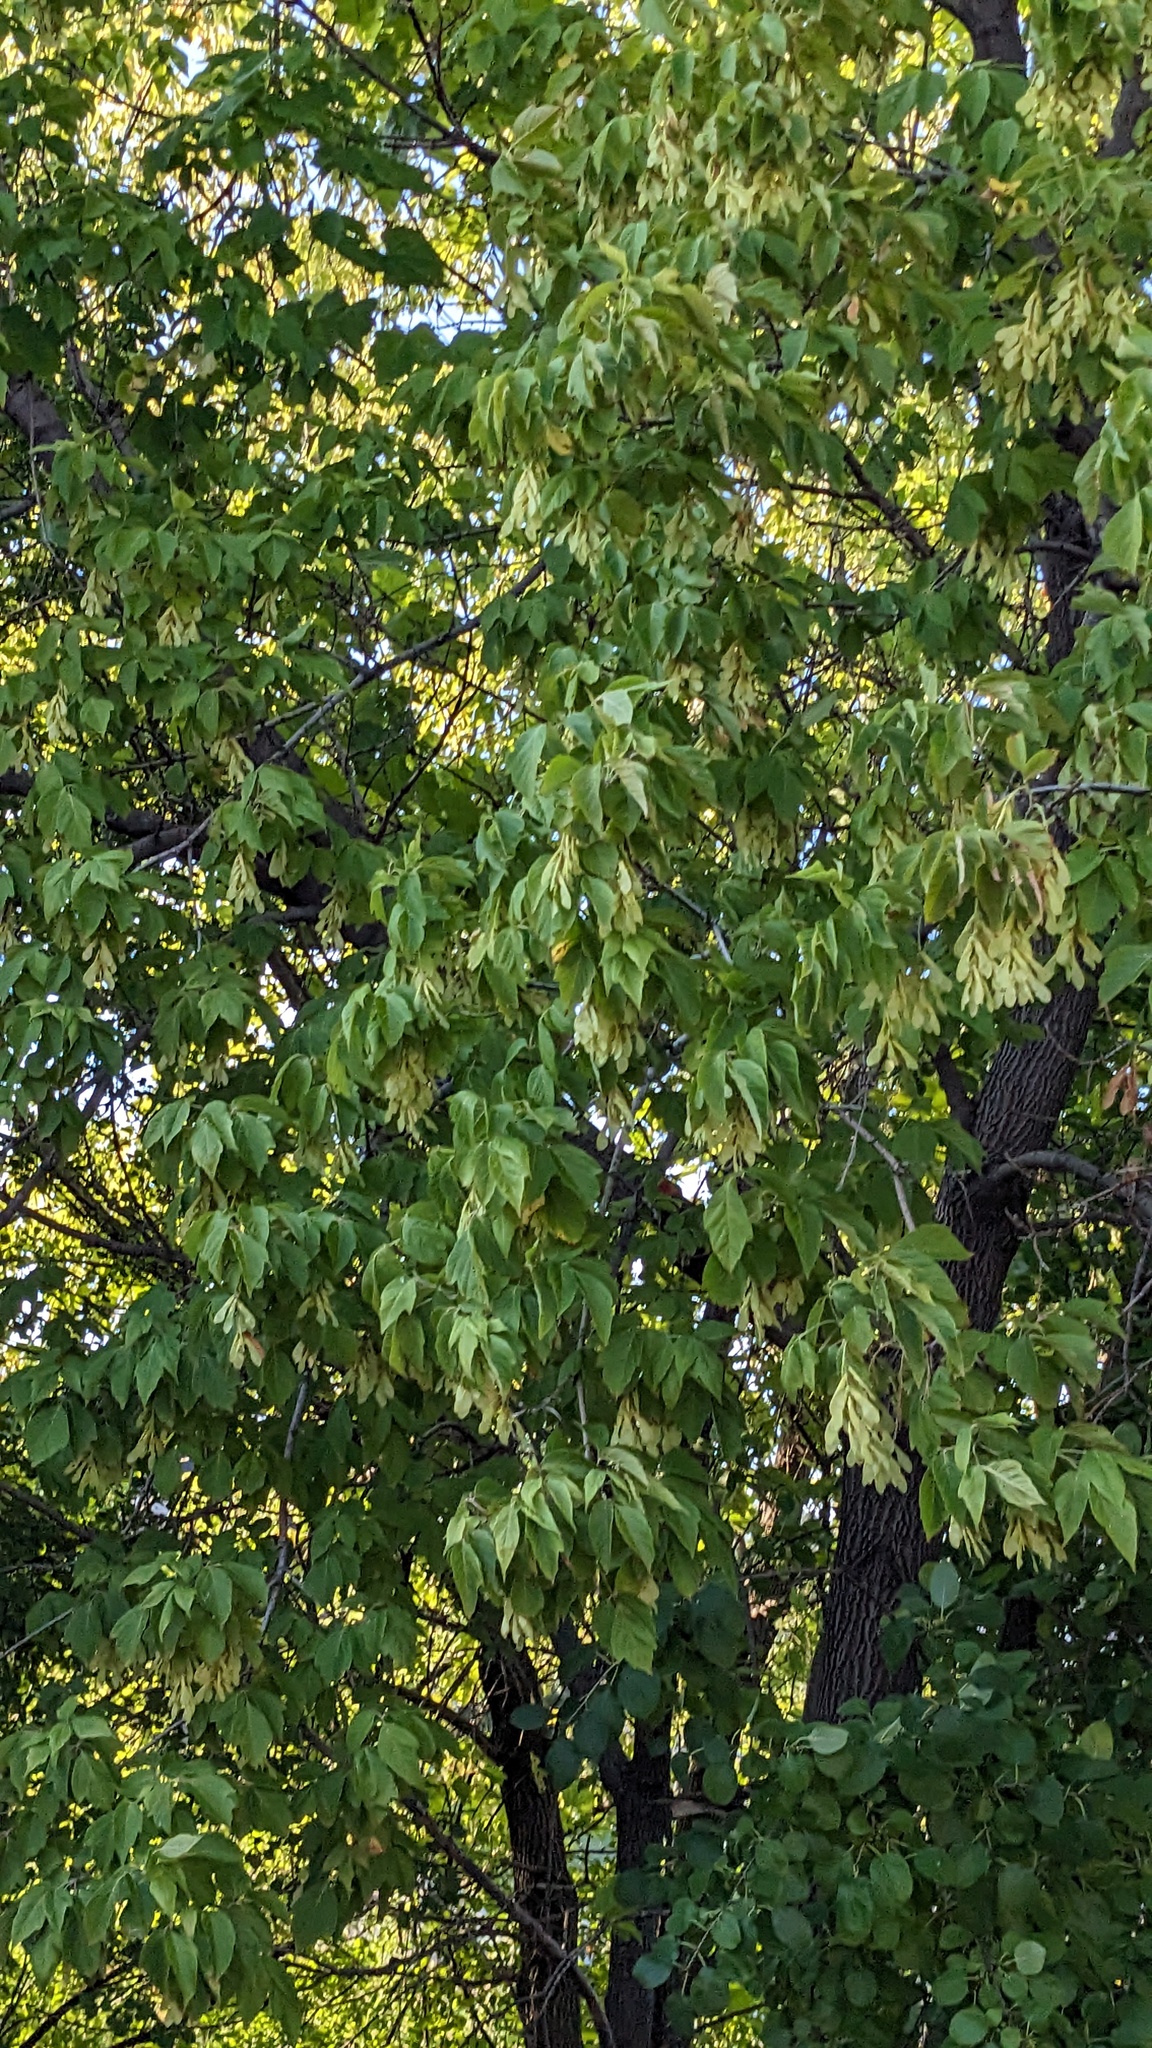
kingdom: Plantae
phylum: Tracheophyta
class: Magnoliopsida
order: Sapindales
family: Sapindaceae
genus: Acer
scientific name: Acer negundo
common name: Ashleaf maple
